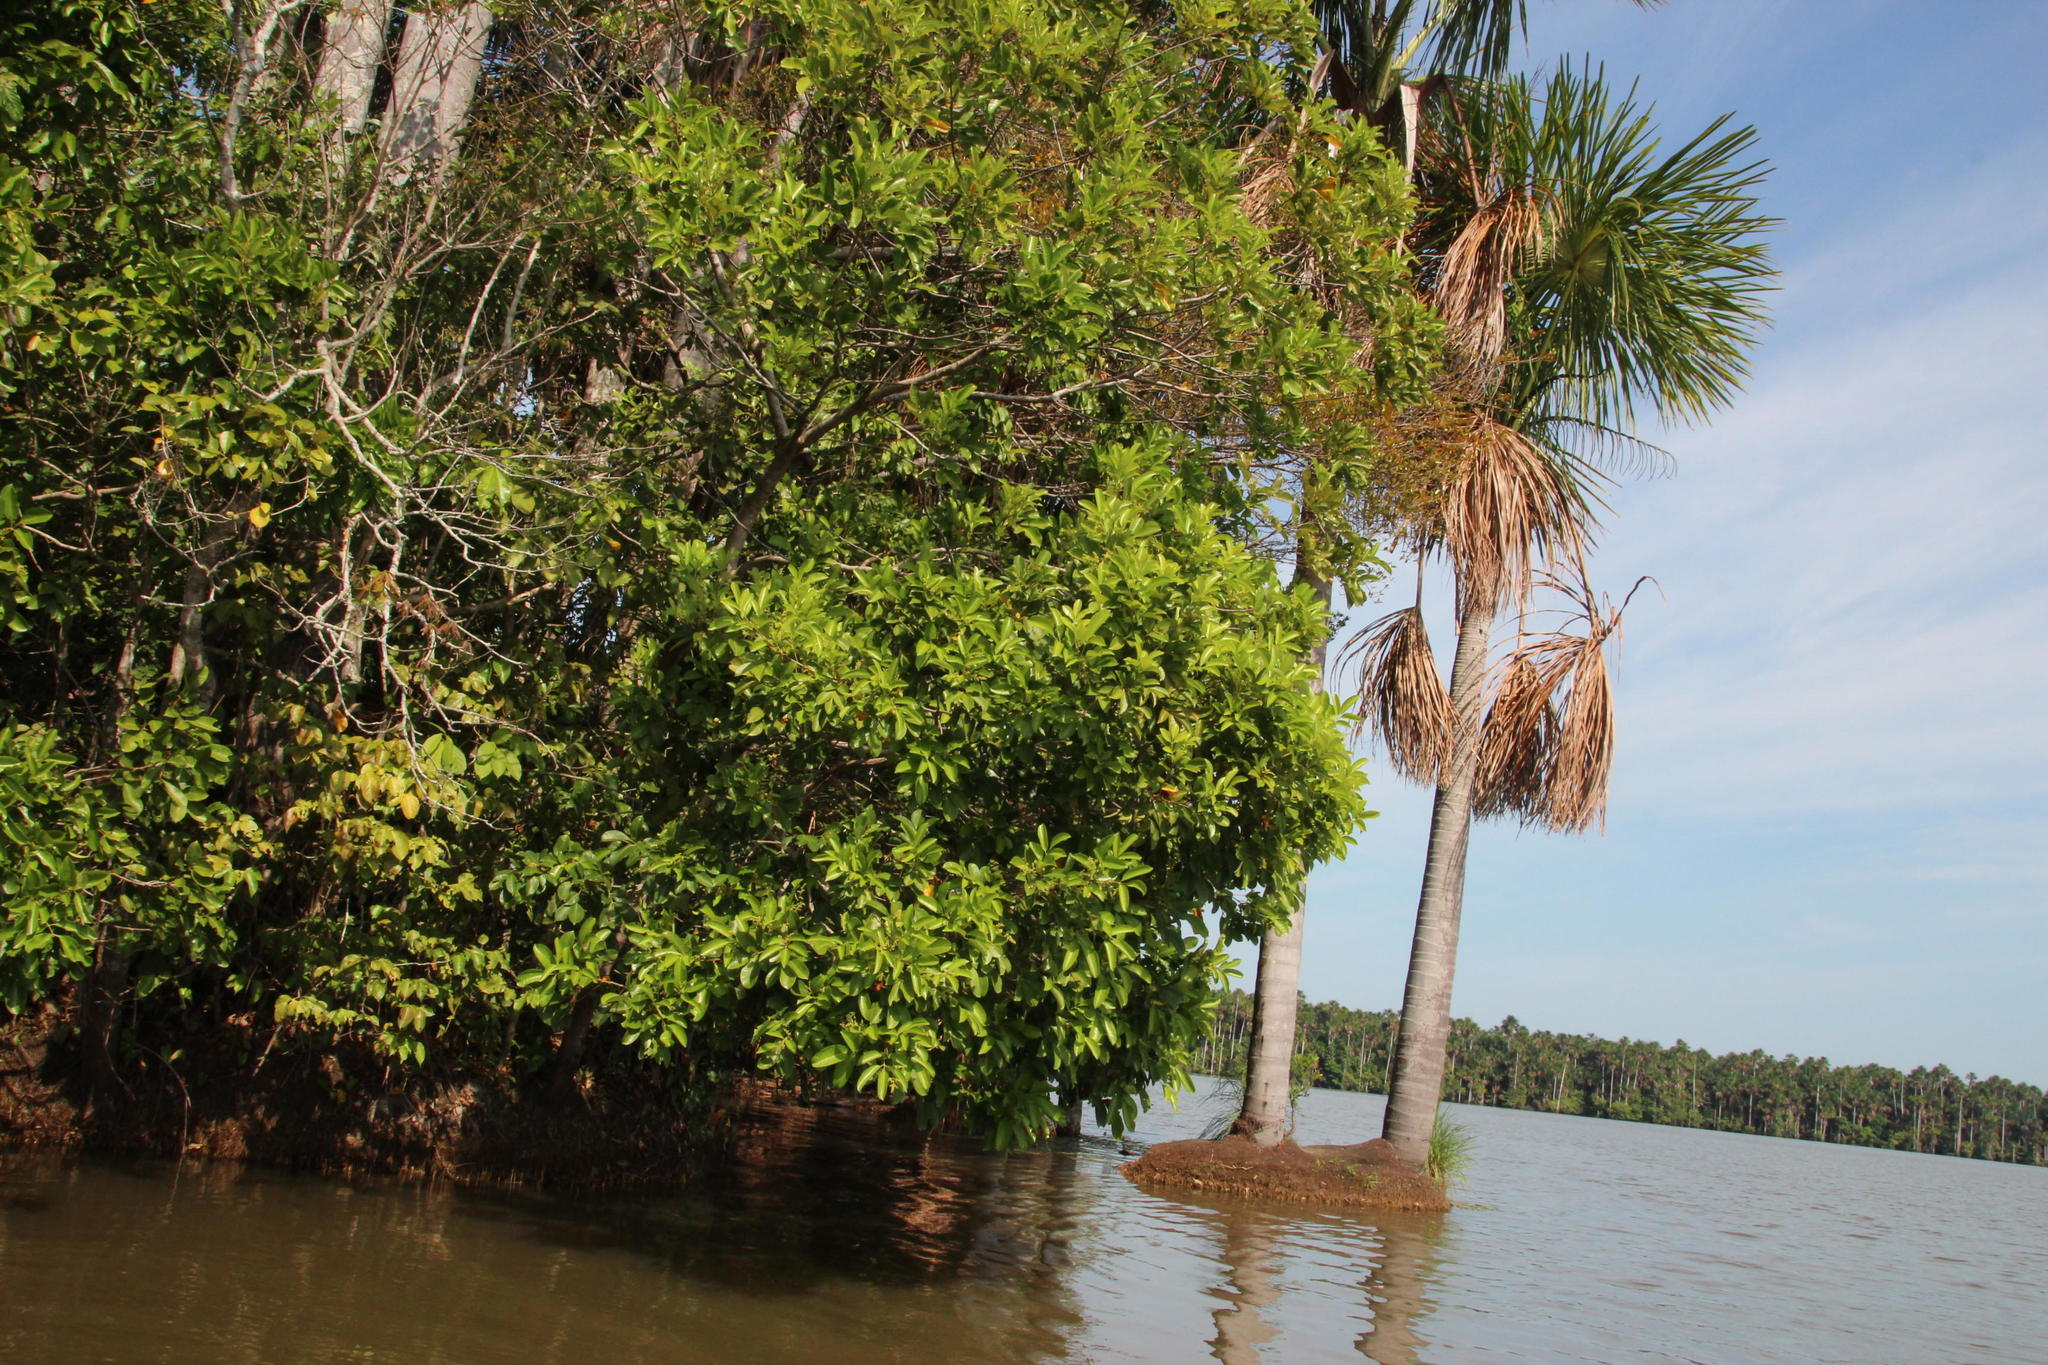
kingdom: Plantae
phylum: Tracheophyta
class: Liliopsida
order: Arecales
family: Arecaceae
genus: Mauritia
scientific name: Mauritia flexuosa
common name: Tree-of-life
